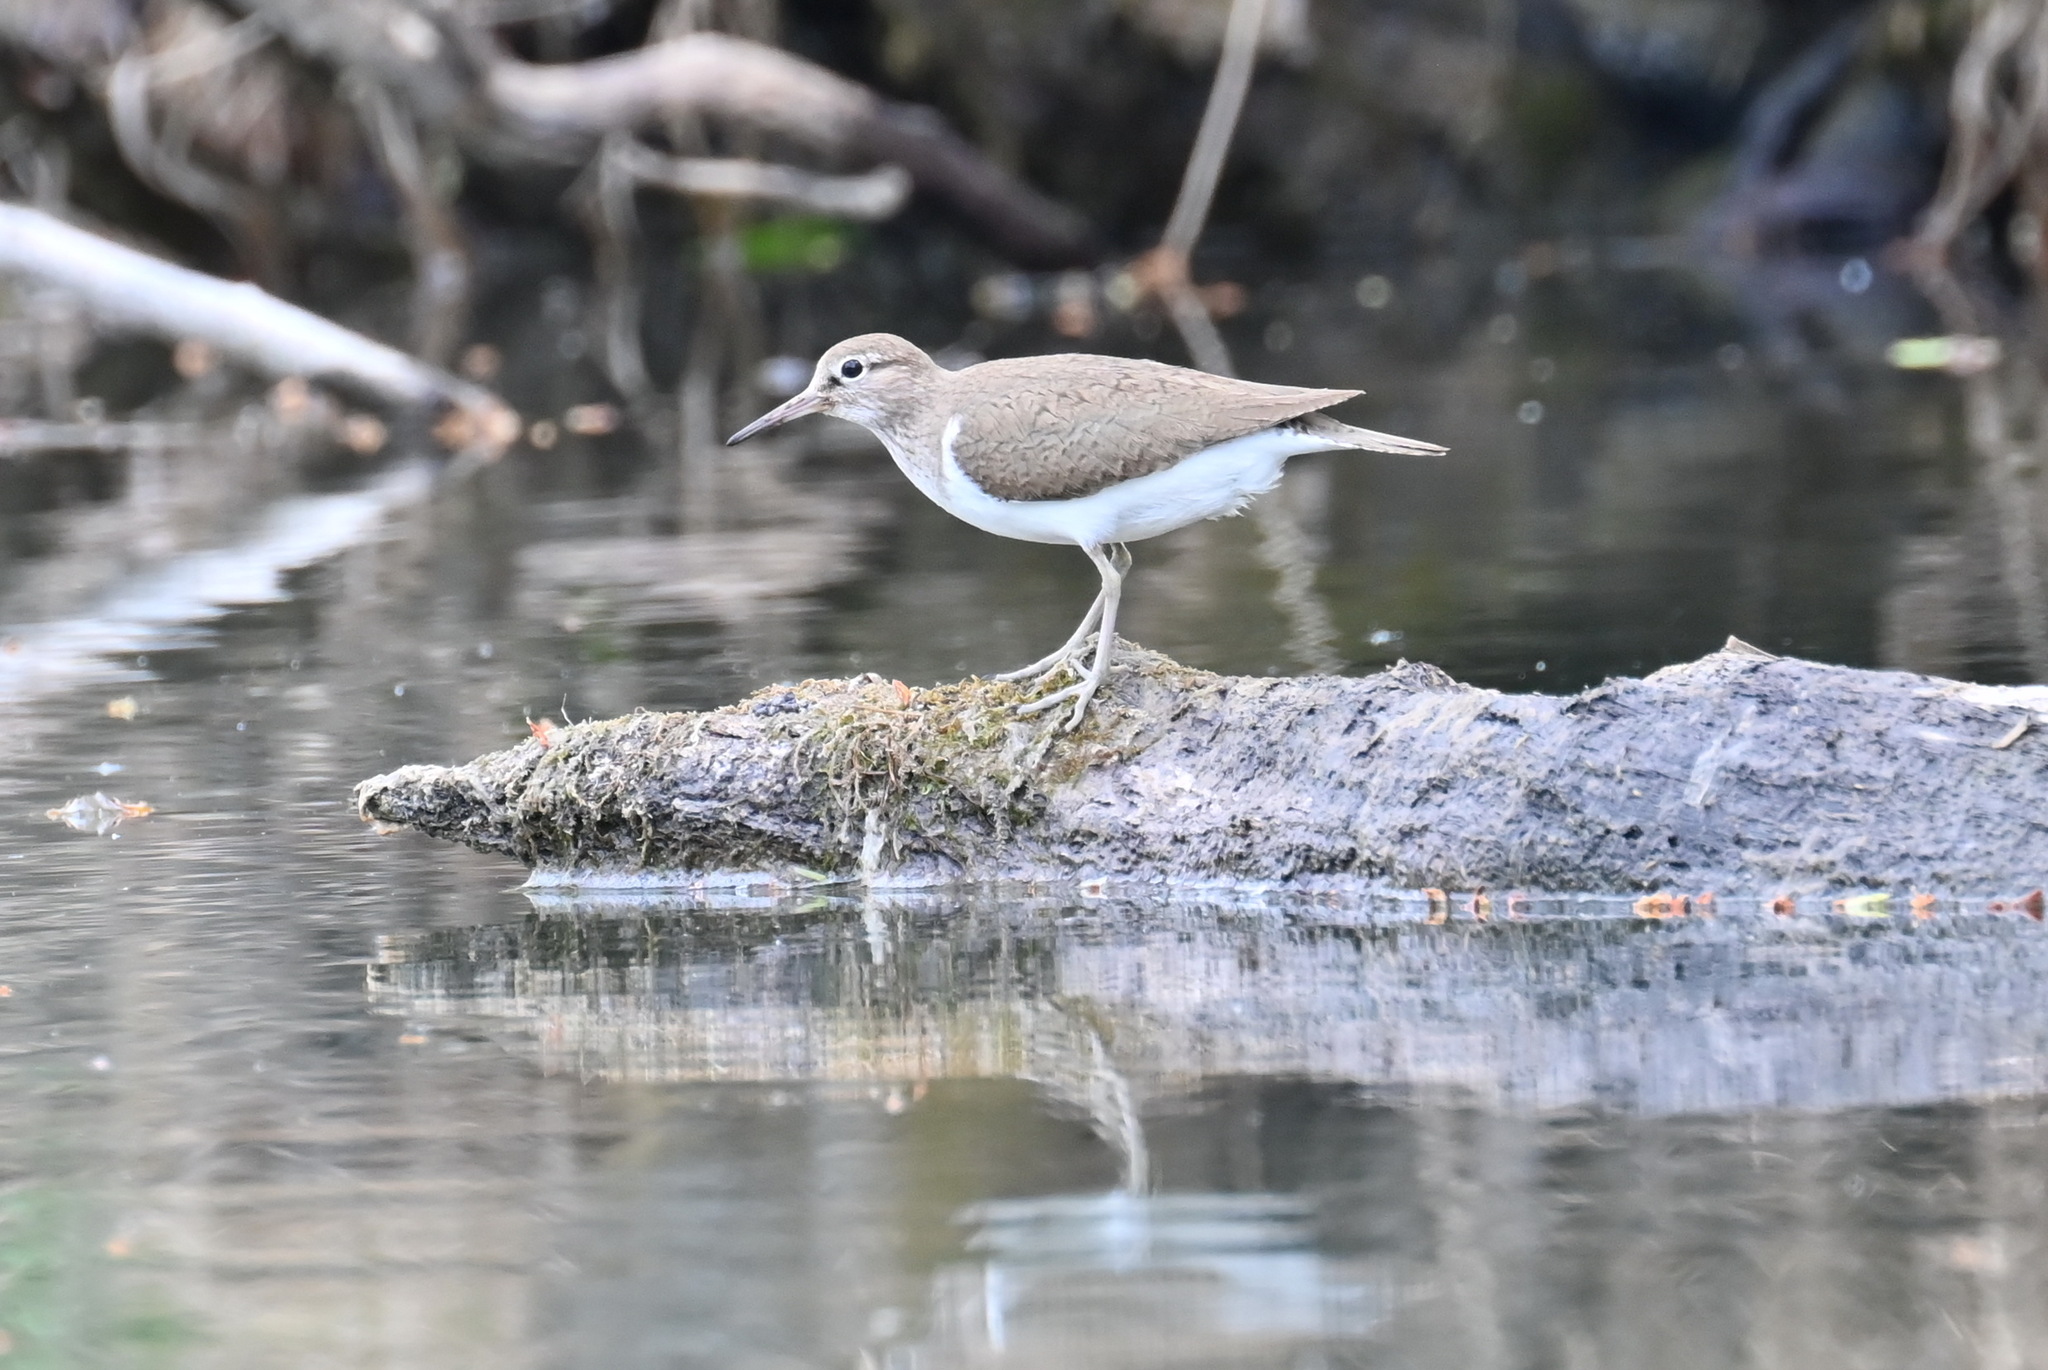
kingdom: Animalia
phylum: Chordata
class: Aves
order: Charadriiformes
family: Scolopacidae
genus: Actitis
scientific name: Actitis hypoleucos
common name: Common sandpiper
